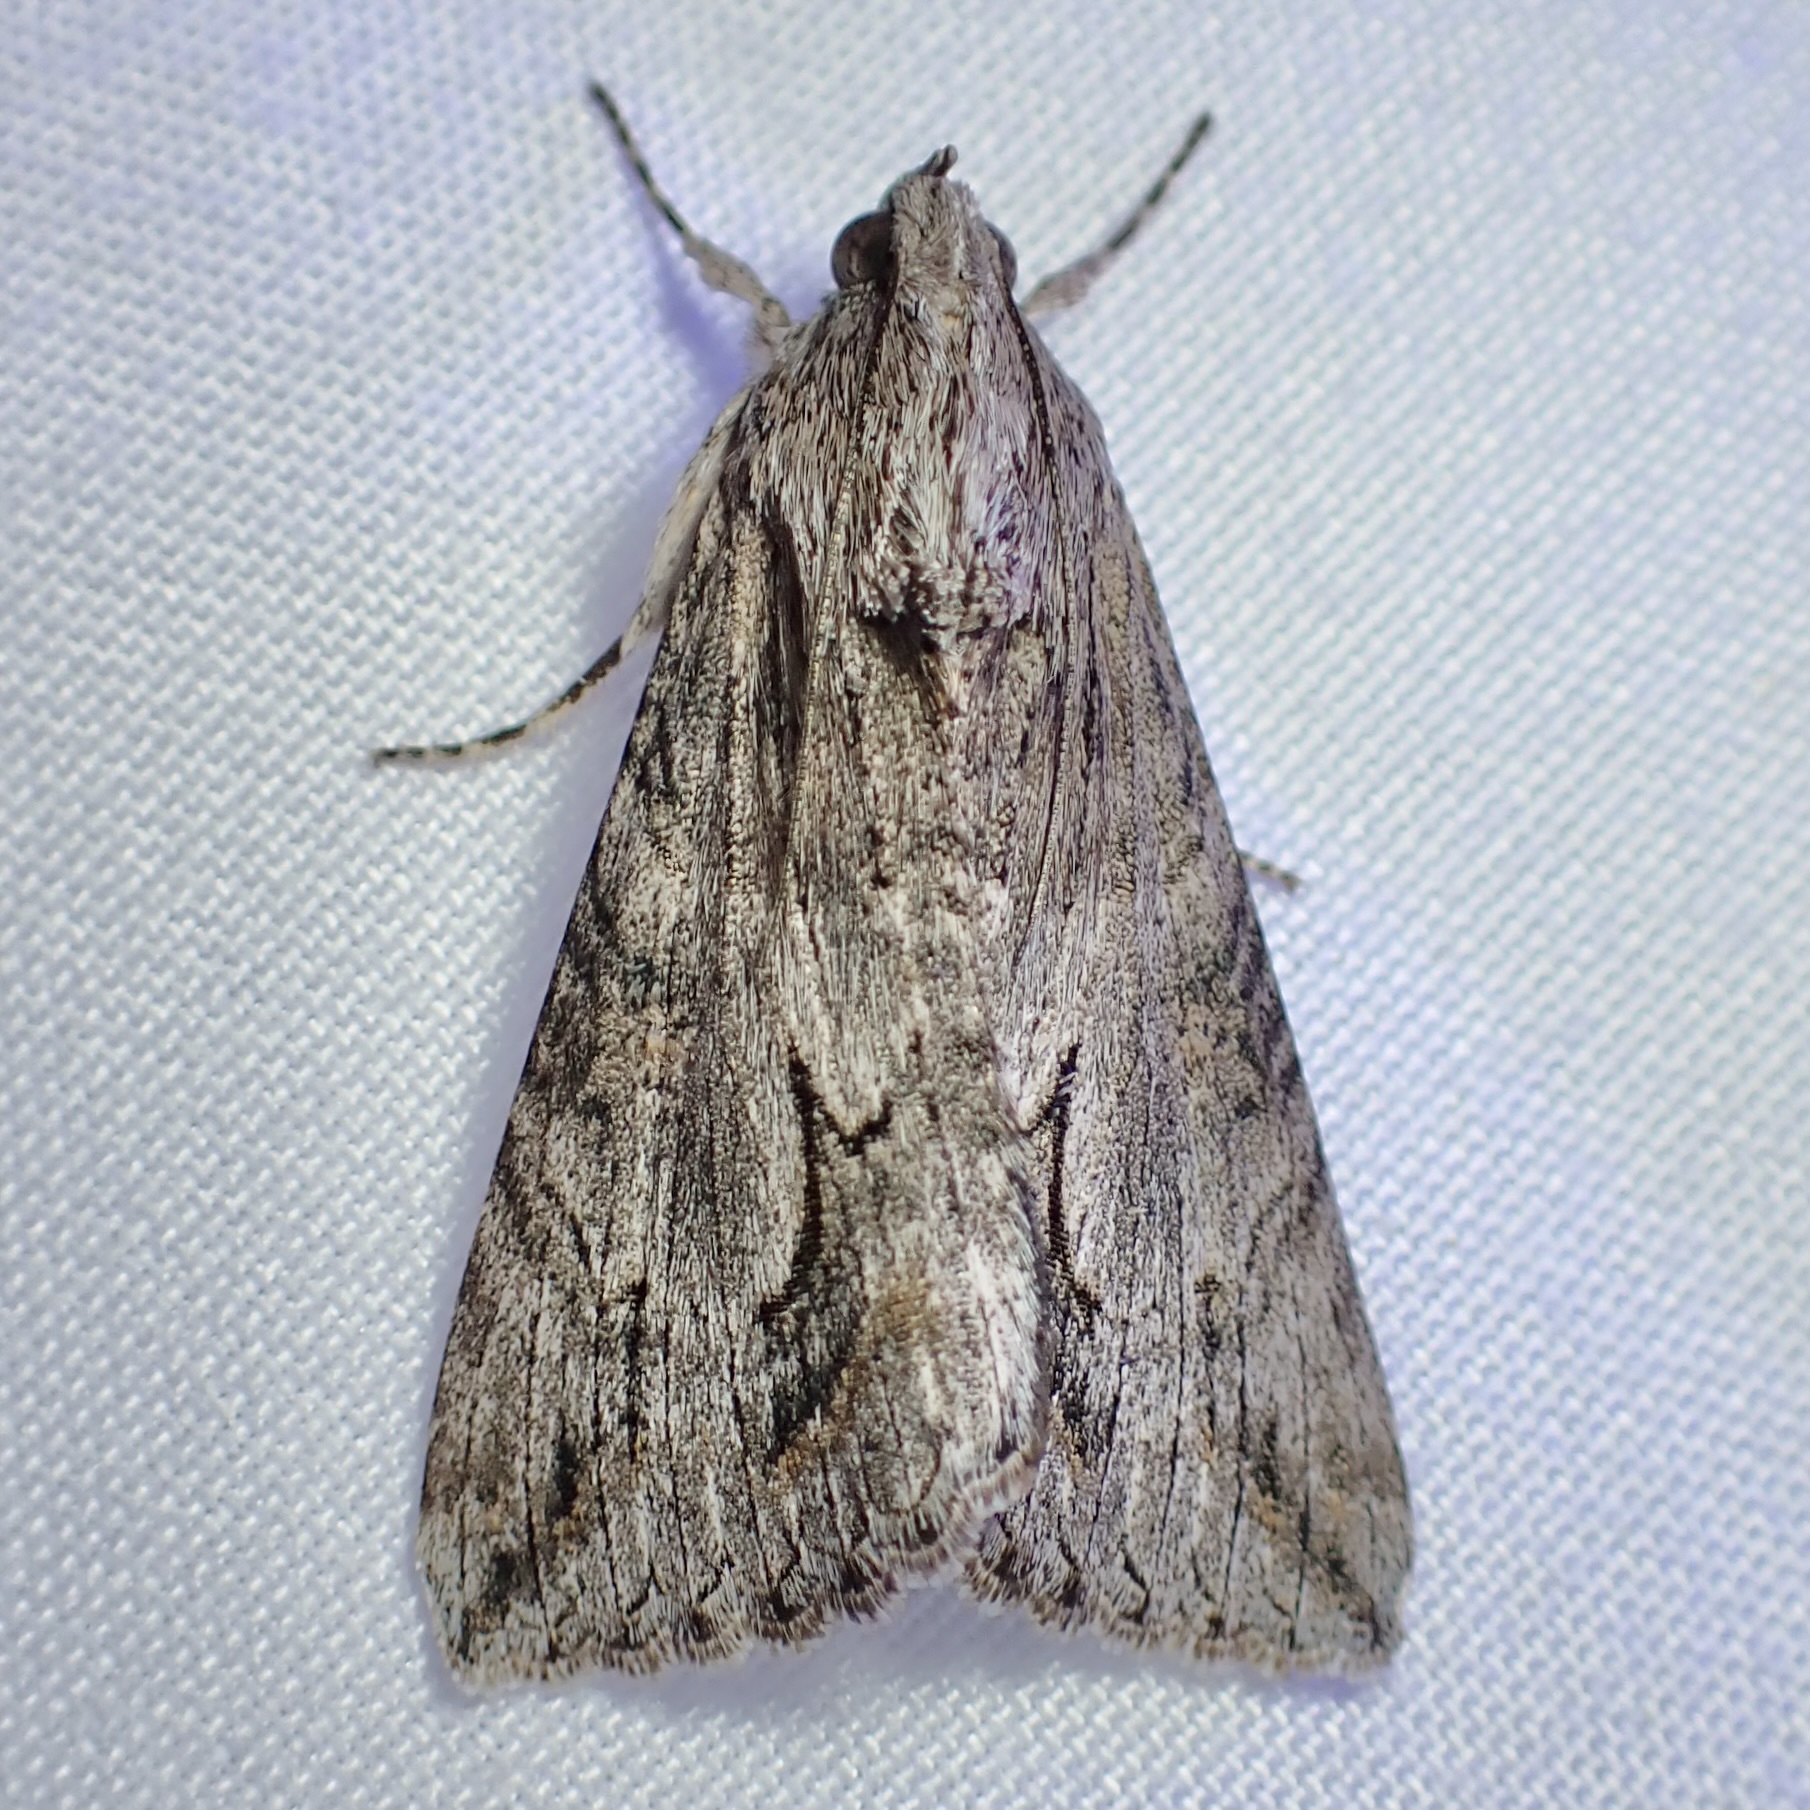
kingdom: Animalia
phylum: Arthropoda
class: Insecta
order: Lepidoptera
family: Erebidae
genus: Melipotis
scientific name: Melipotis jucunda
